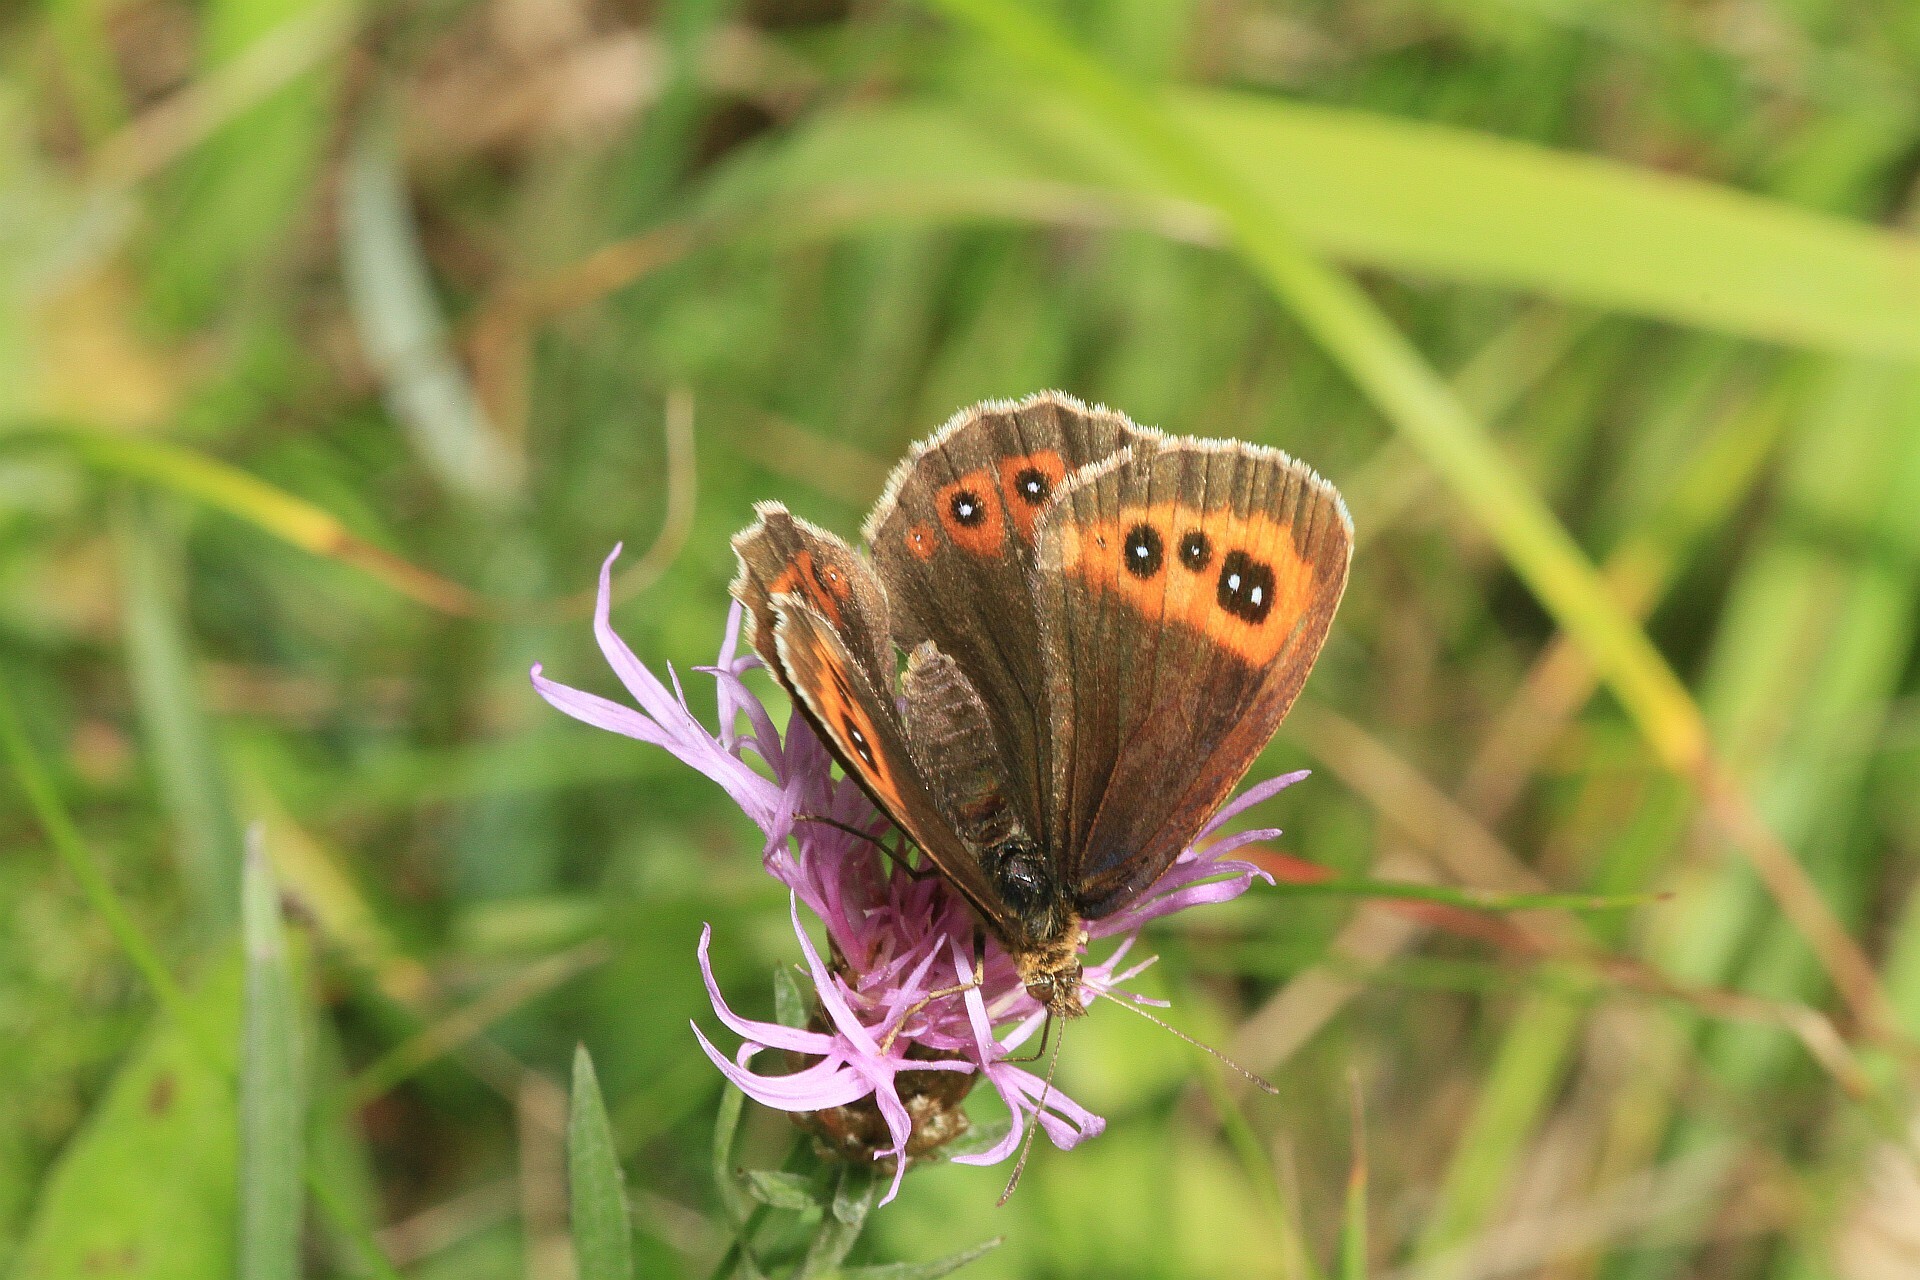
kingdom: Animalia
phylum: Arthropoda
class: Insecta
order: Lepidoptera
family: Nymphalidae
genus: Erebia
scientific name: Erebia aethiops
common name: Scotch argus
